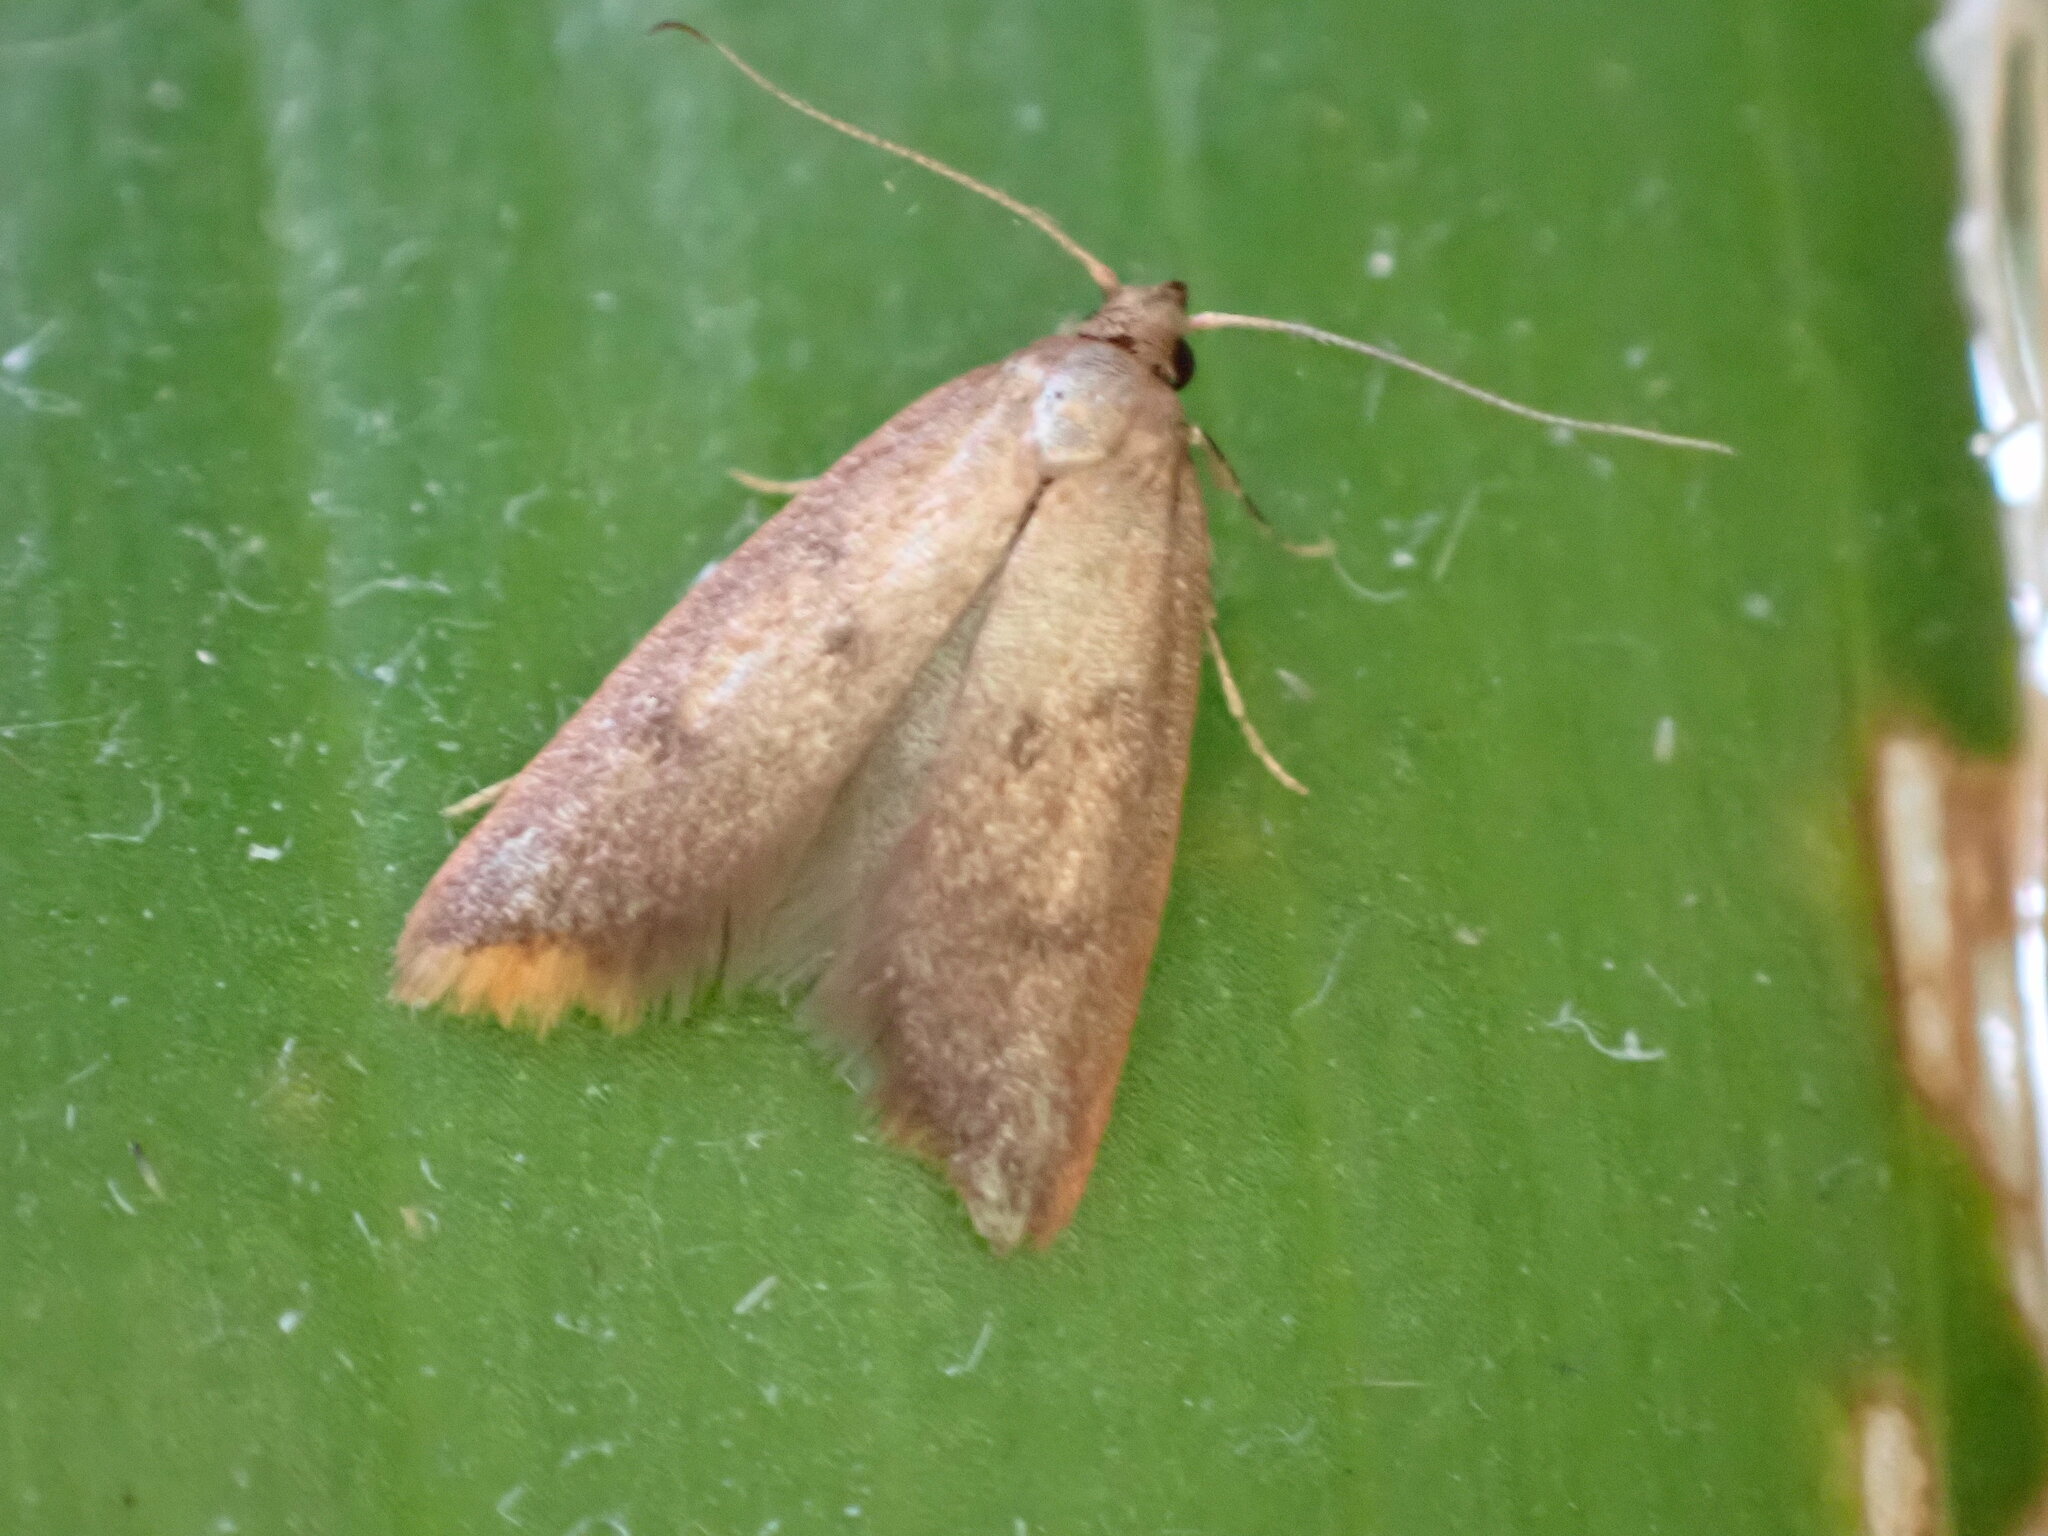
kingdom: Animalia
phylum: Arthropoda
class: Insecta
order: Lepidoptera
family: Oecophoridae
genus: Tachystola
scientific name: Tachystola acroxantha
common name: Ruddy streak
